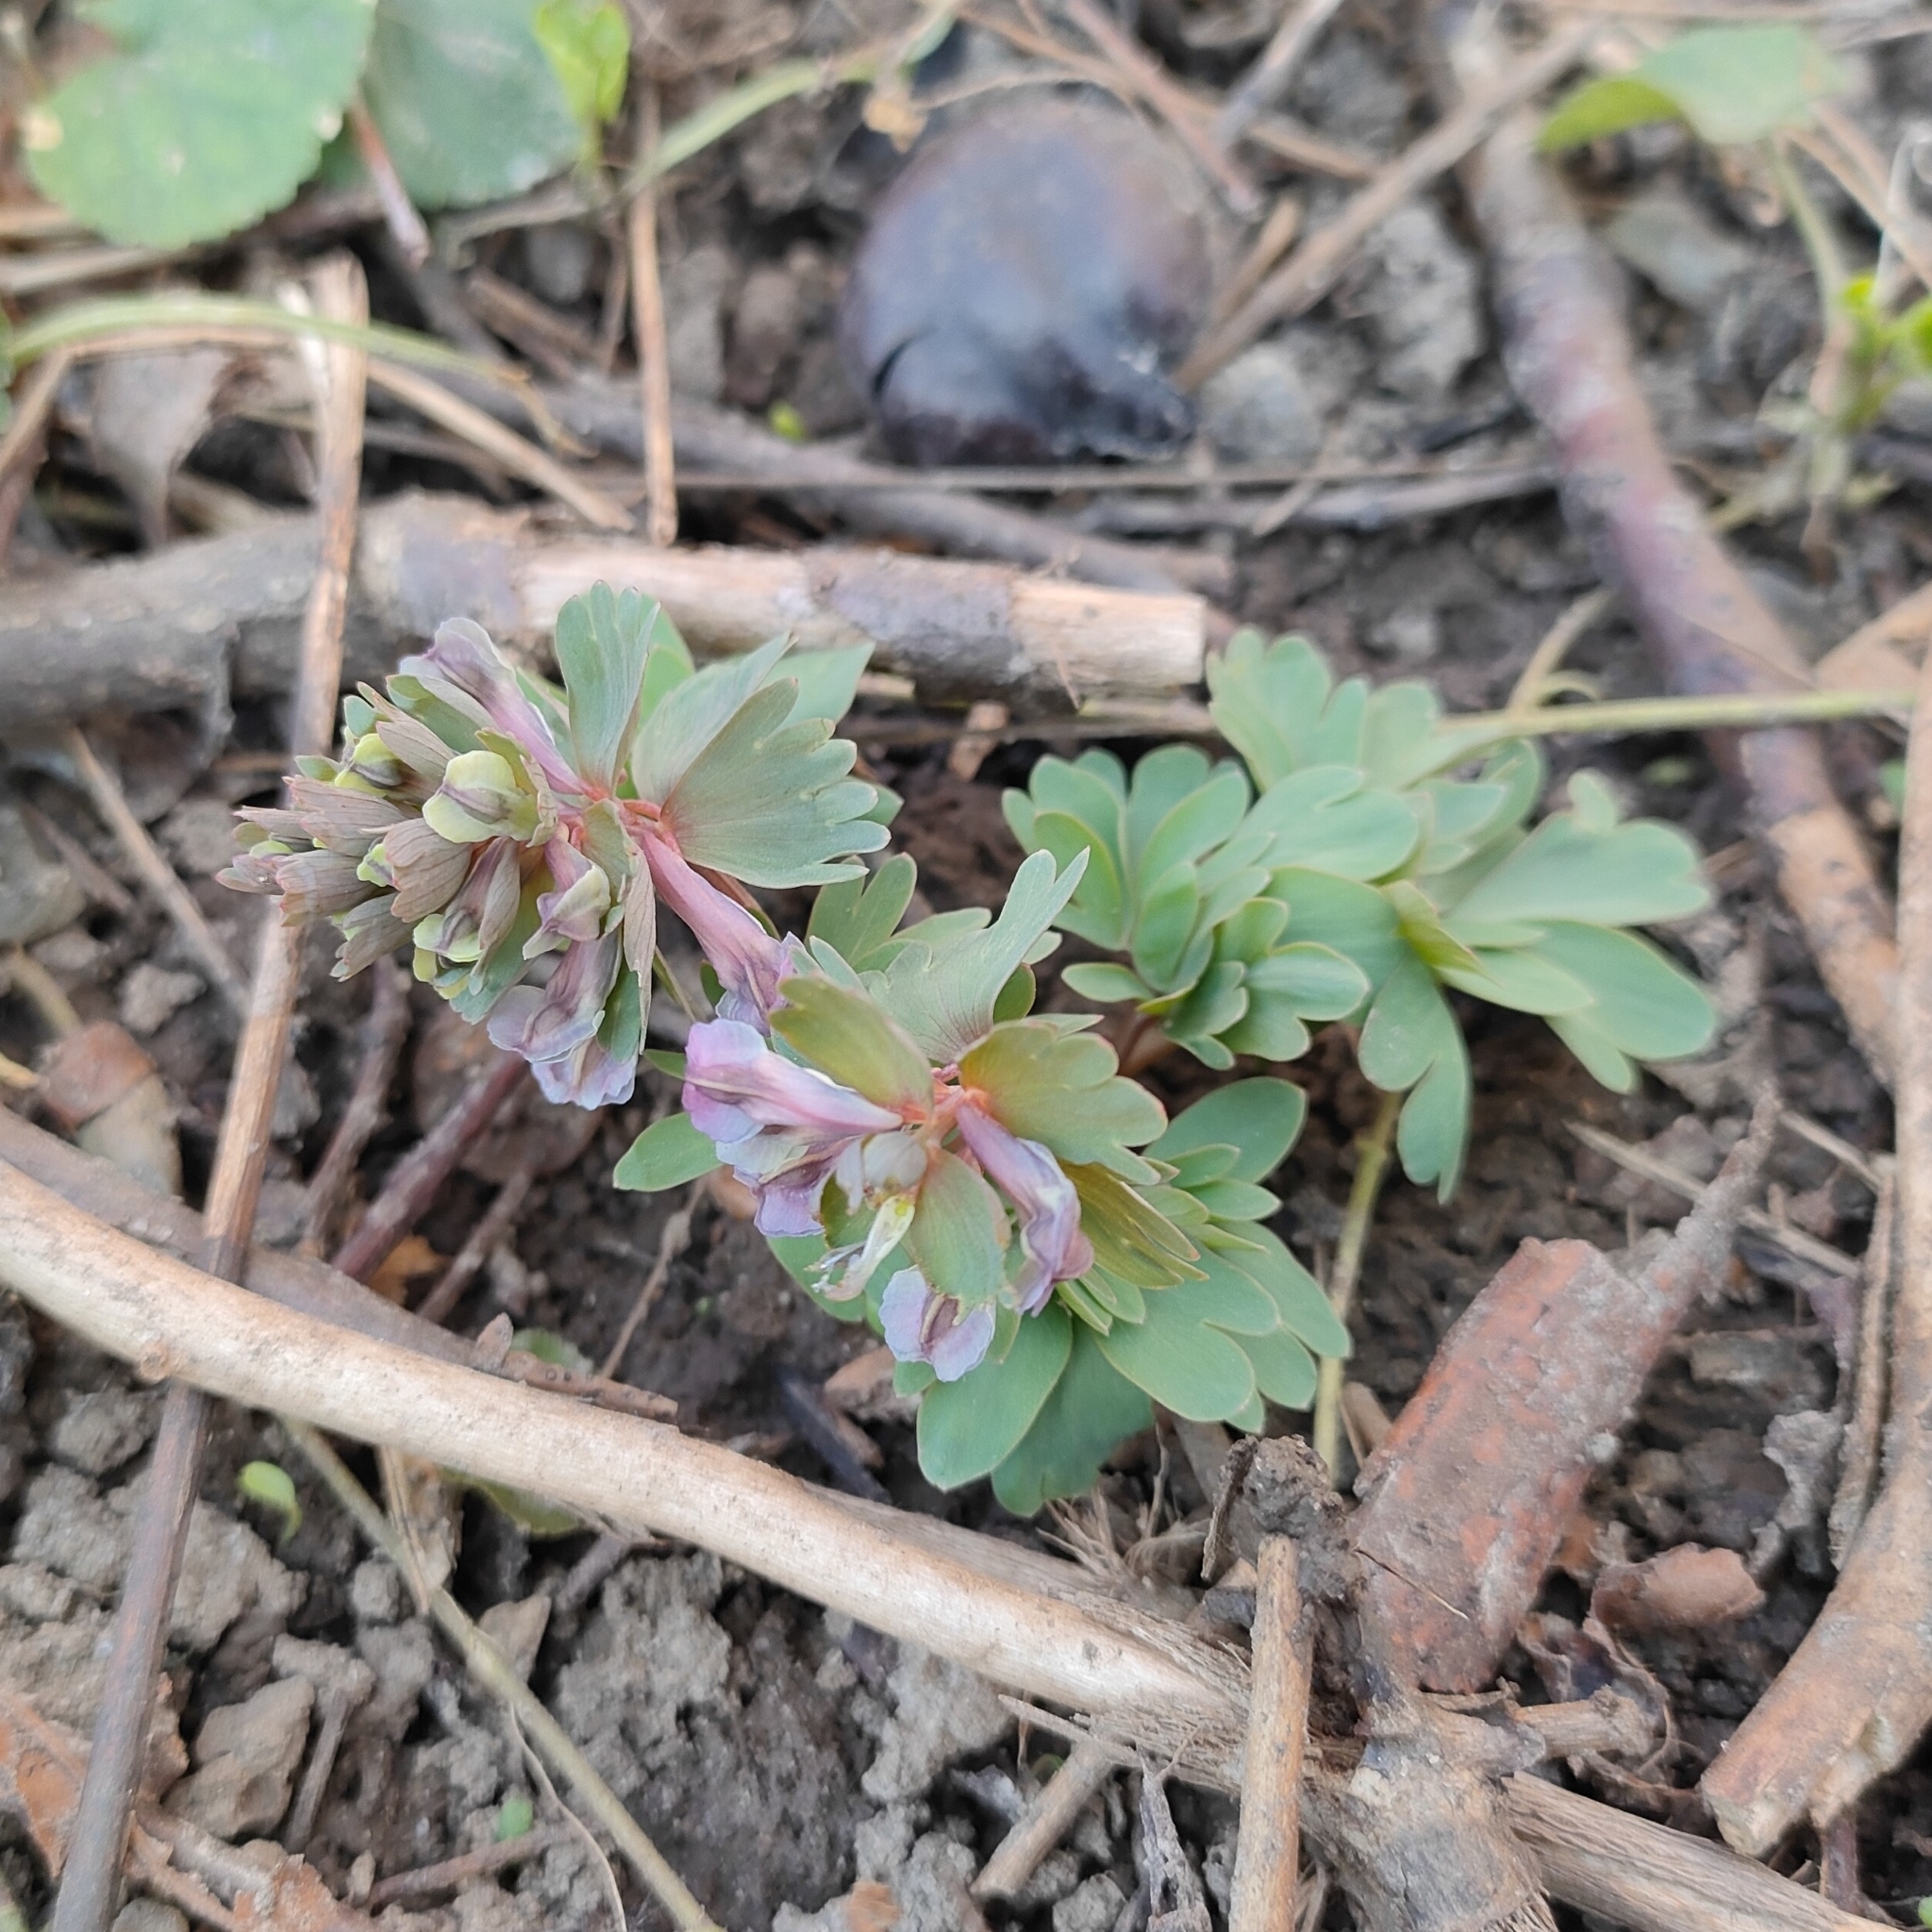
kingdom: Plantae
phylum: Tracheophyta
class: Magnoliopsida
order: Ranunculales
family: Papaveraceae
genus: Corydalis
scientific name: Corydalis solida
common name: Bird-in-a-bush
